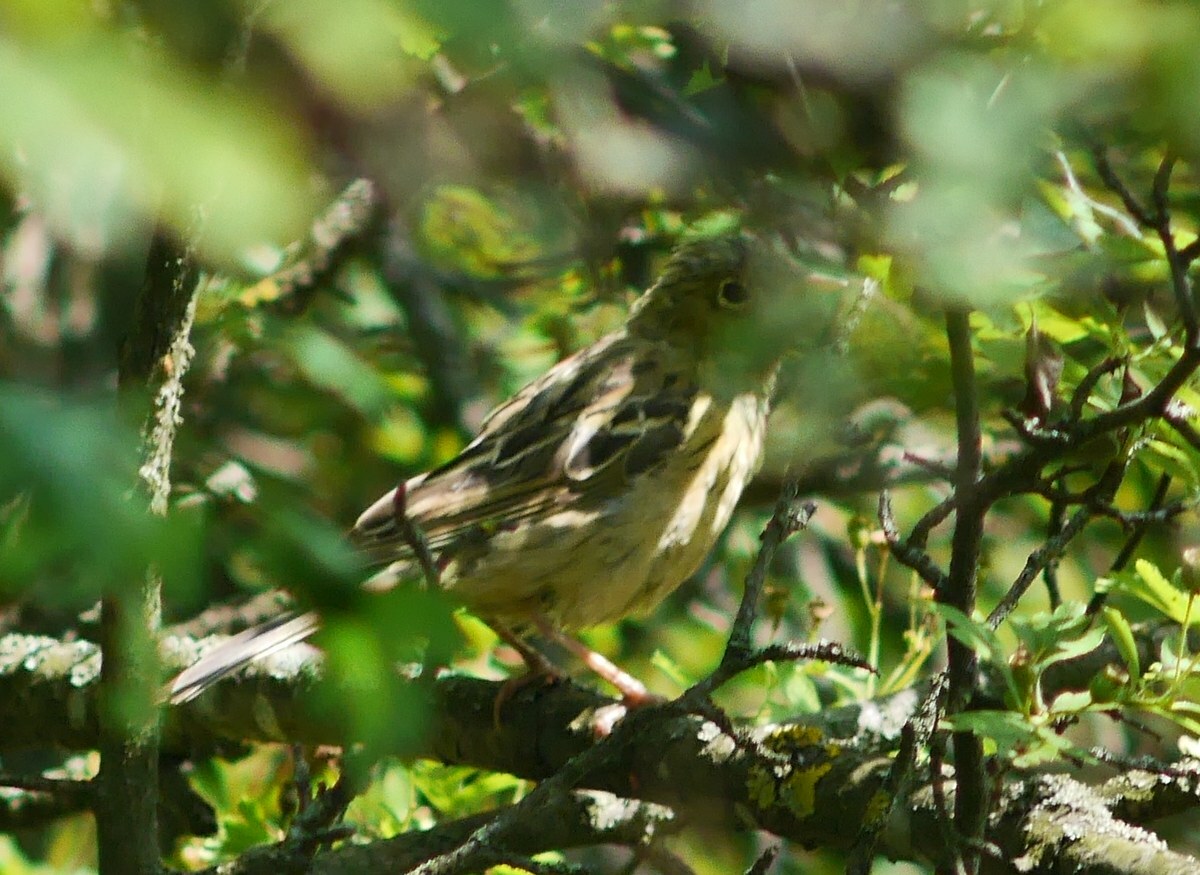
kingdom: Animalia
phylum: Chordata
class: Aves
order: Passeriformes
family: Emberizidae
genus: Emberiza
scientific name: Emberiza hortulana
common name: Ortolan bunting
